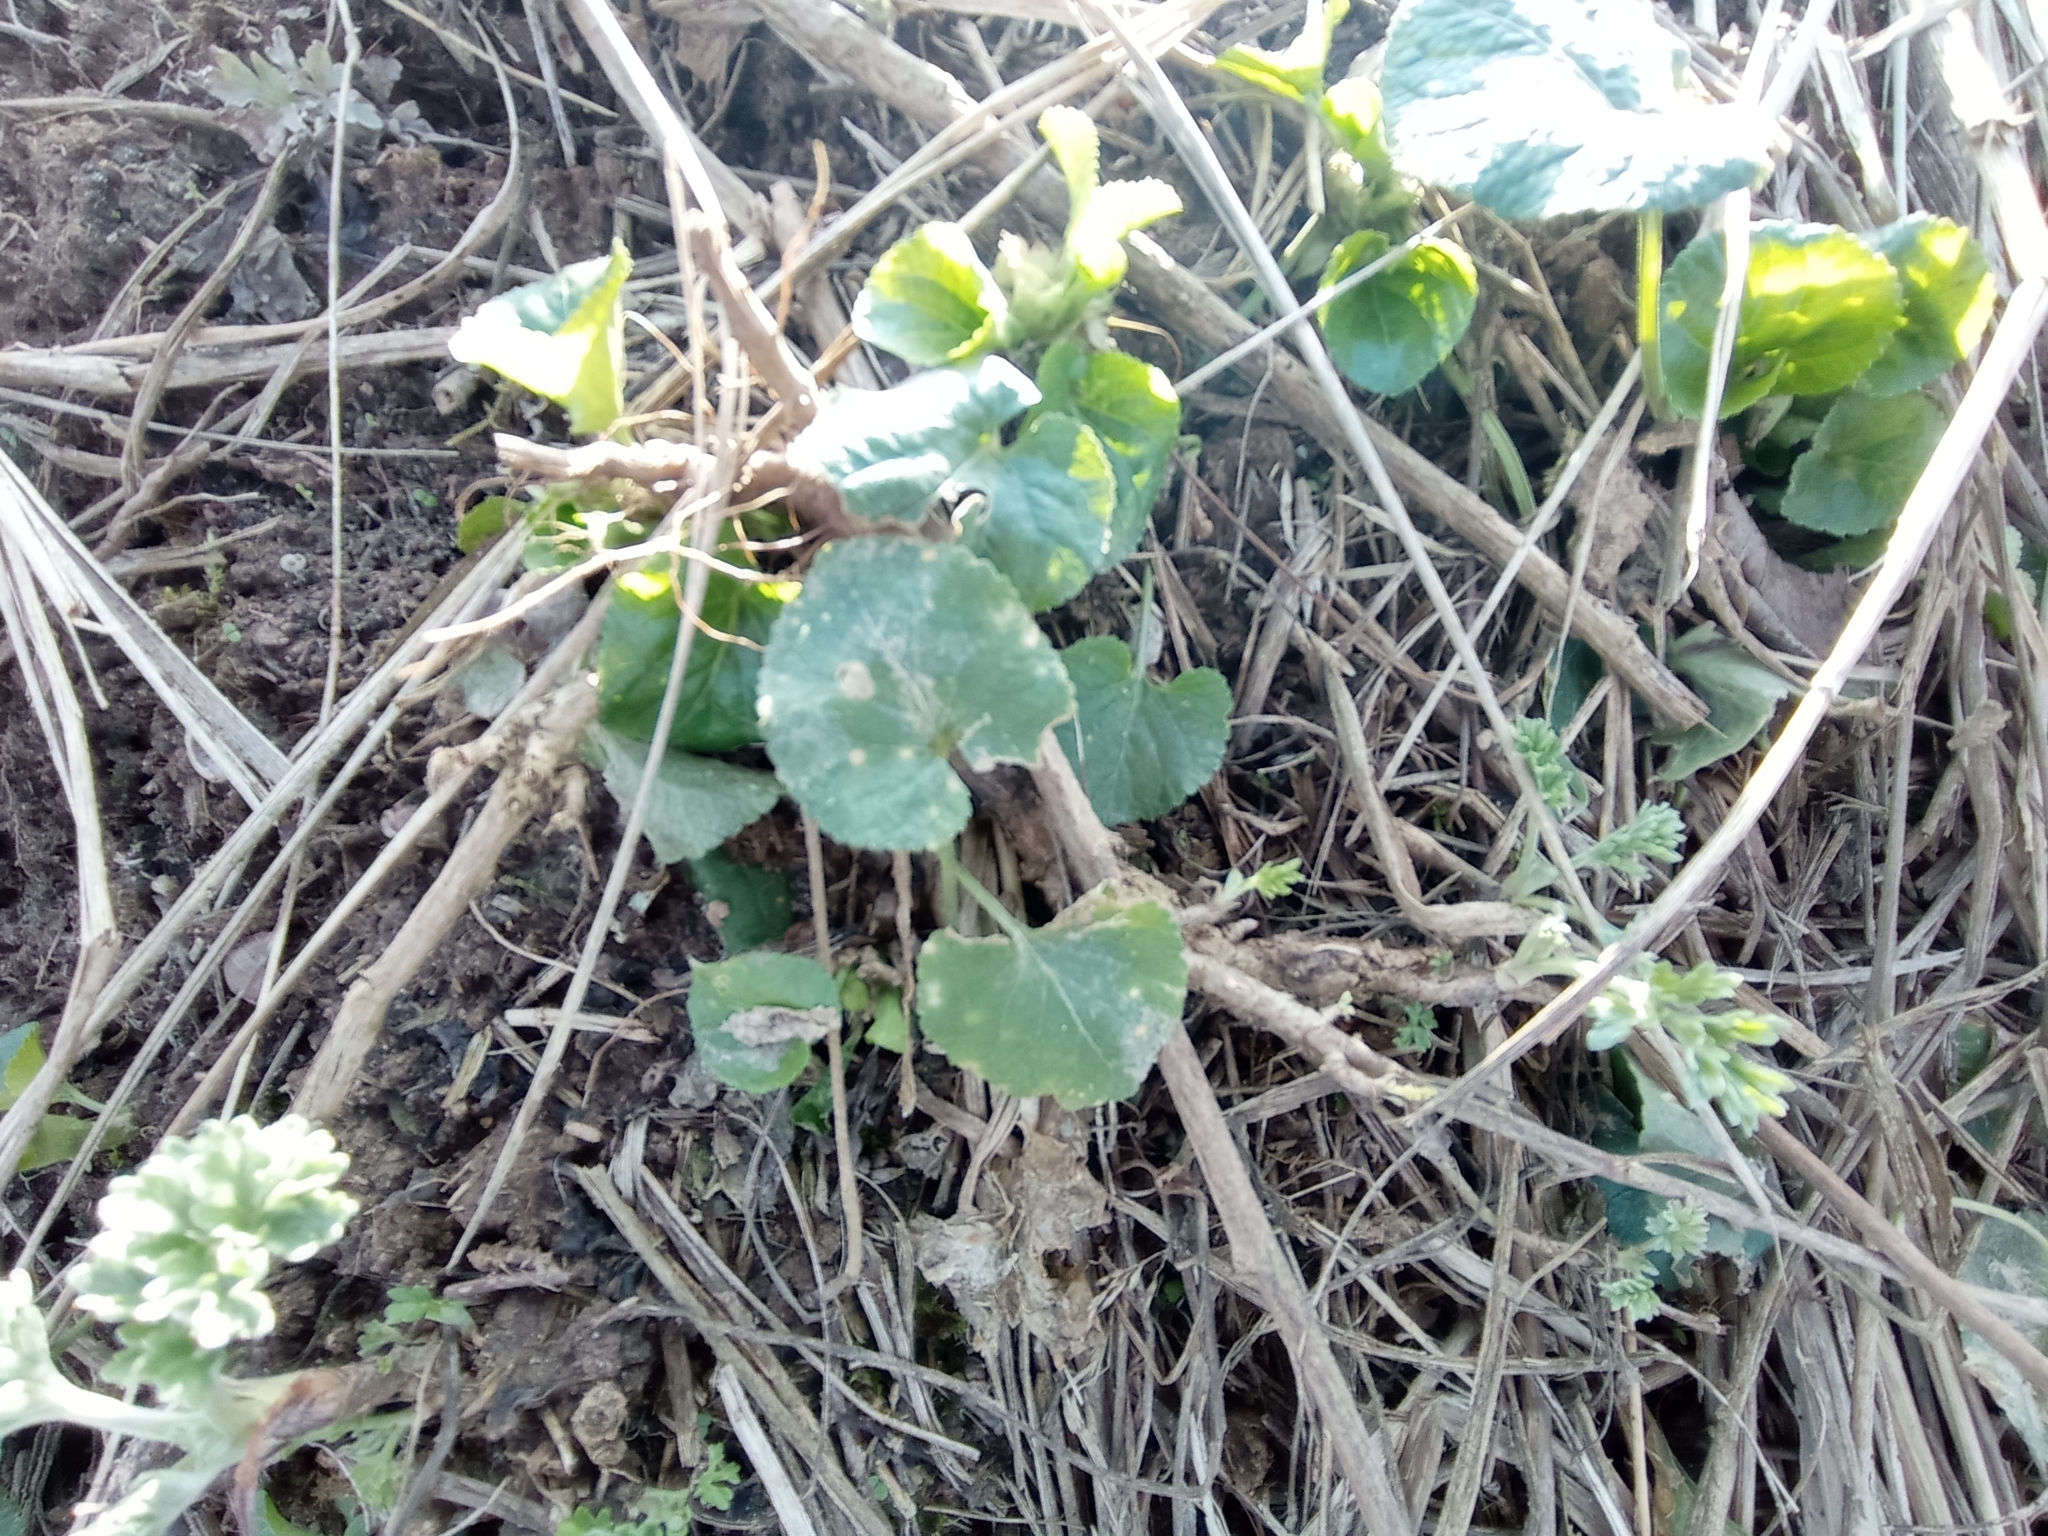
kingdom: Plantae
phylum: Tracheophyta
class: Magnoliopsida
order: Malpighiales
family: Violaceae
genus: Viola
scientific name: Viola odorata
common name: Sweet violet
